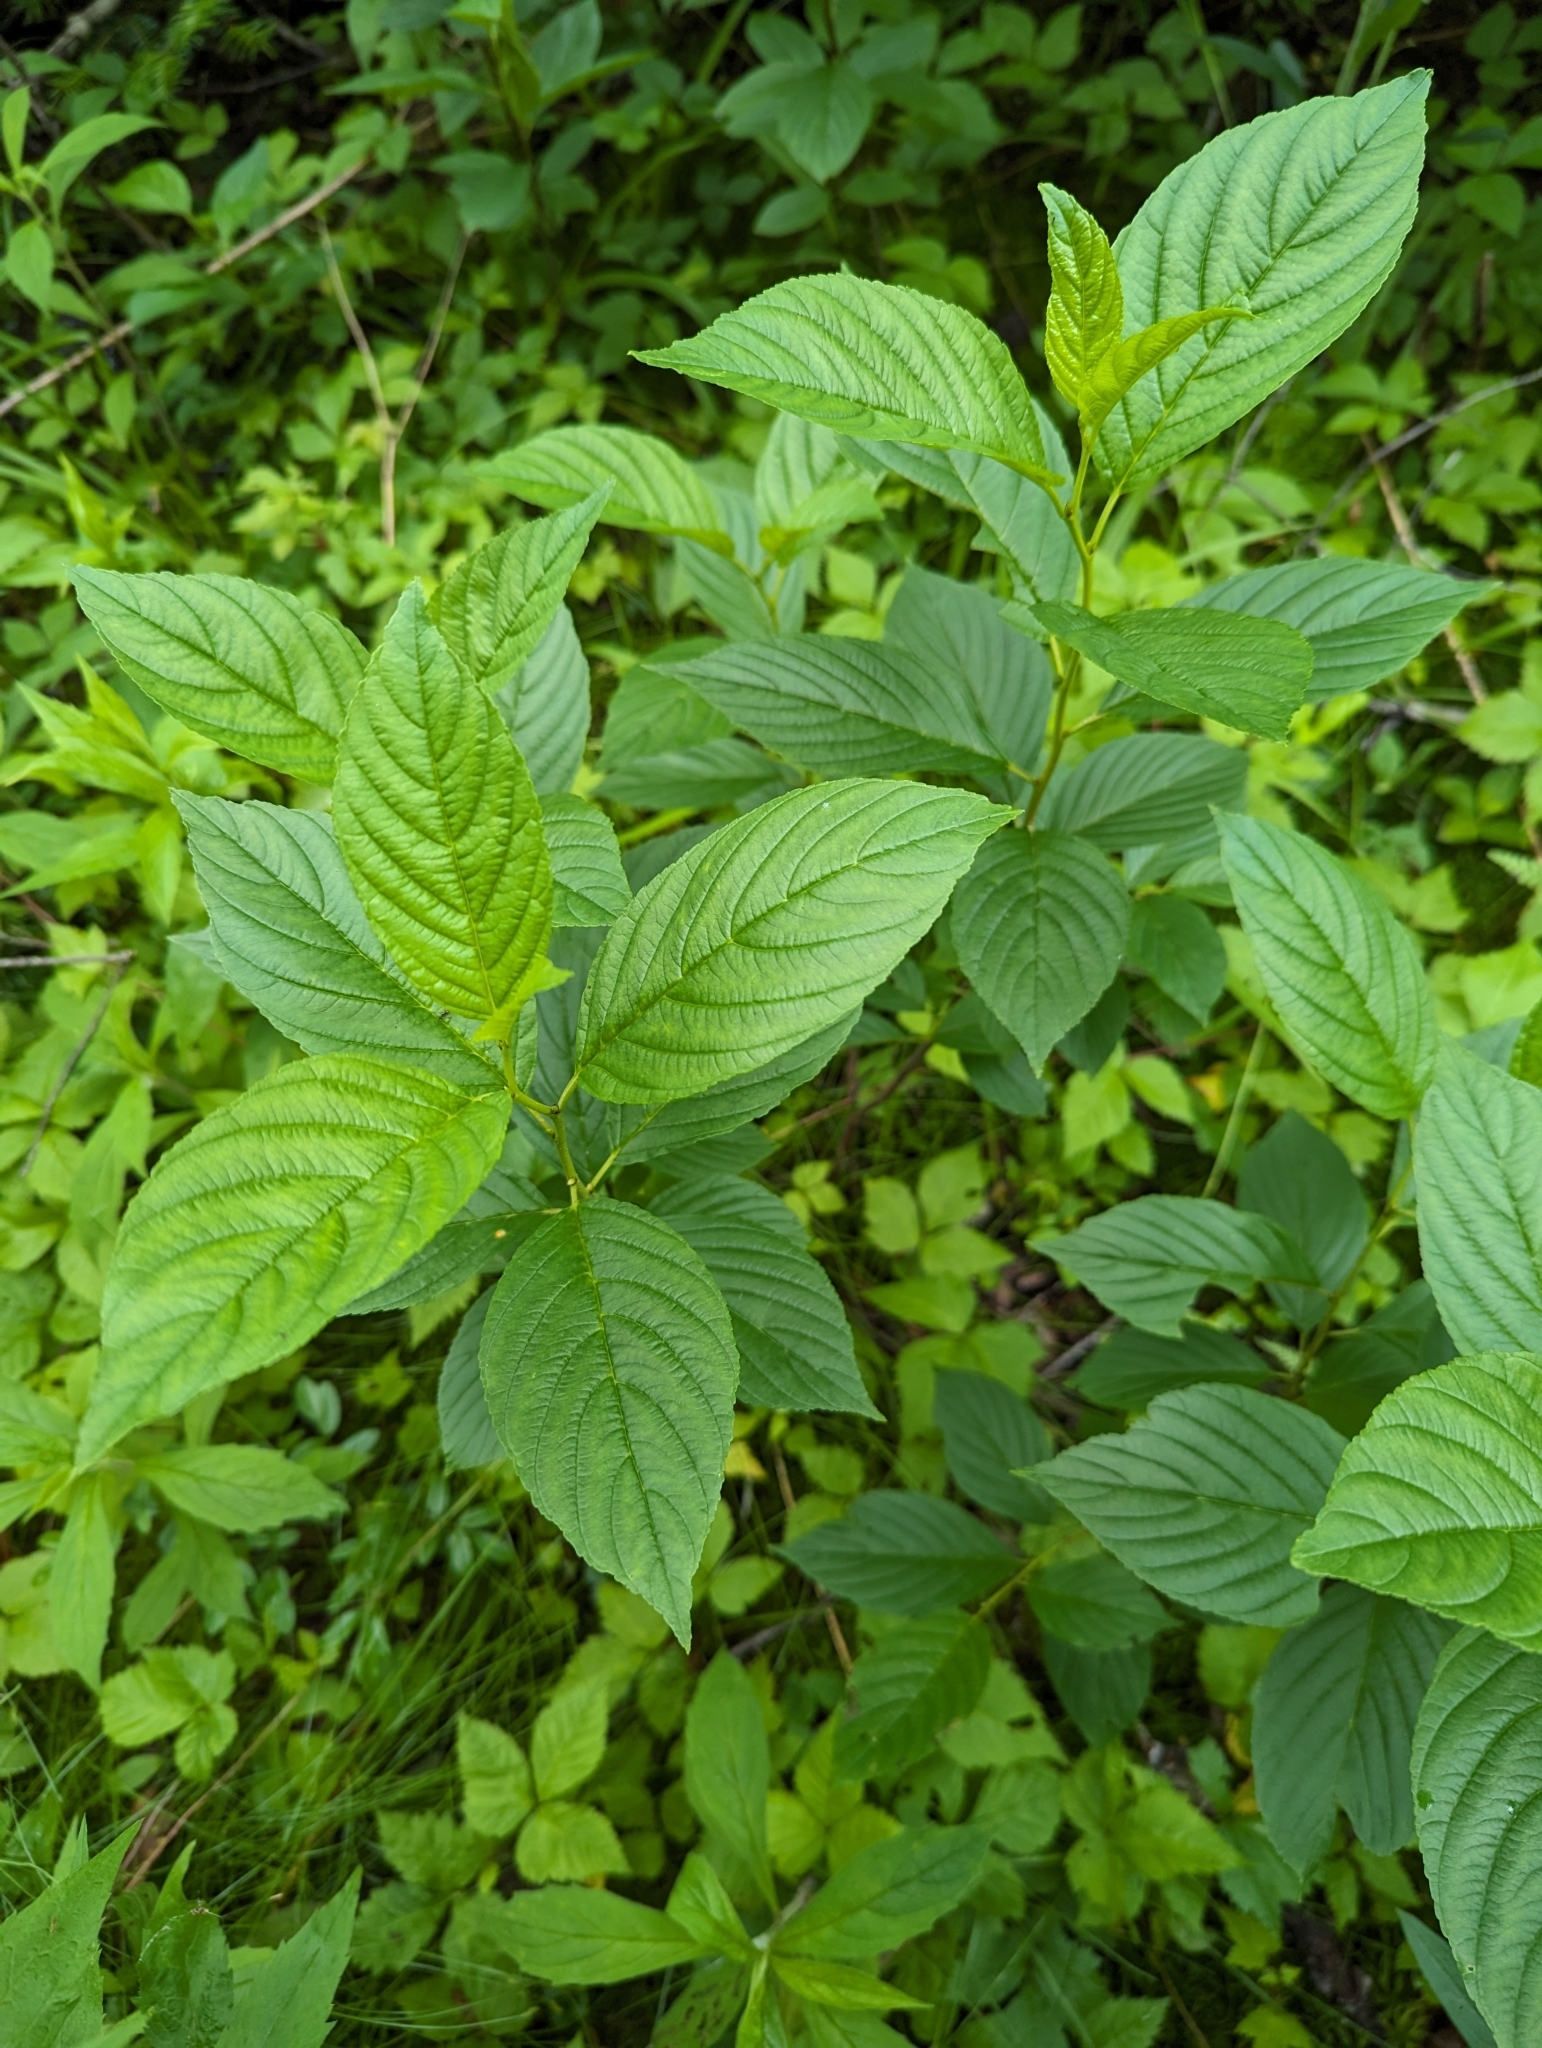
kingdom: Plantae
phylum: Tracheophyta
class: Magnoliopsida
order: Rosales
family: Rhamnaceae
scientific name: Rhamnaceae
